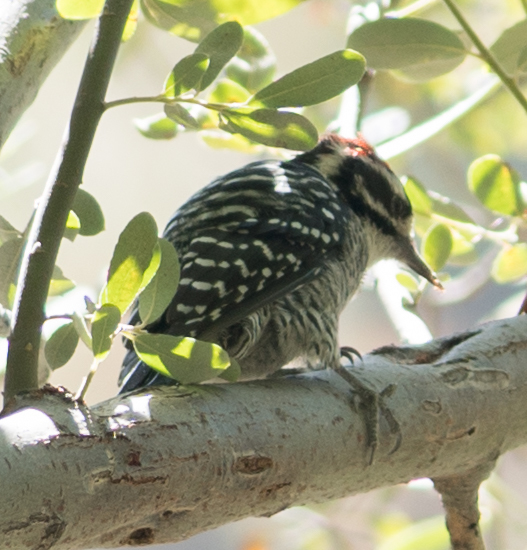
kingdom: Animalia
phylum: Chordata
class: Aves
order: Piciformes
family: Picidae
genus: Dryobates
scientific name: Dryobates nuttallii
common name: Nuttall's woodpecker
